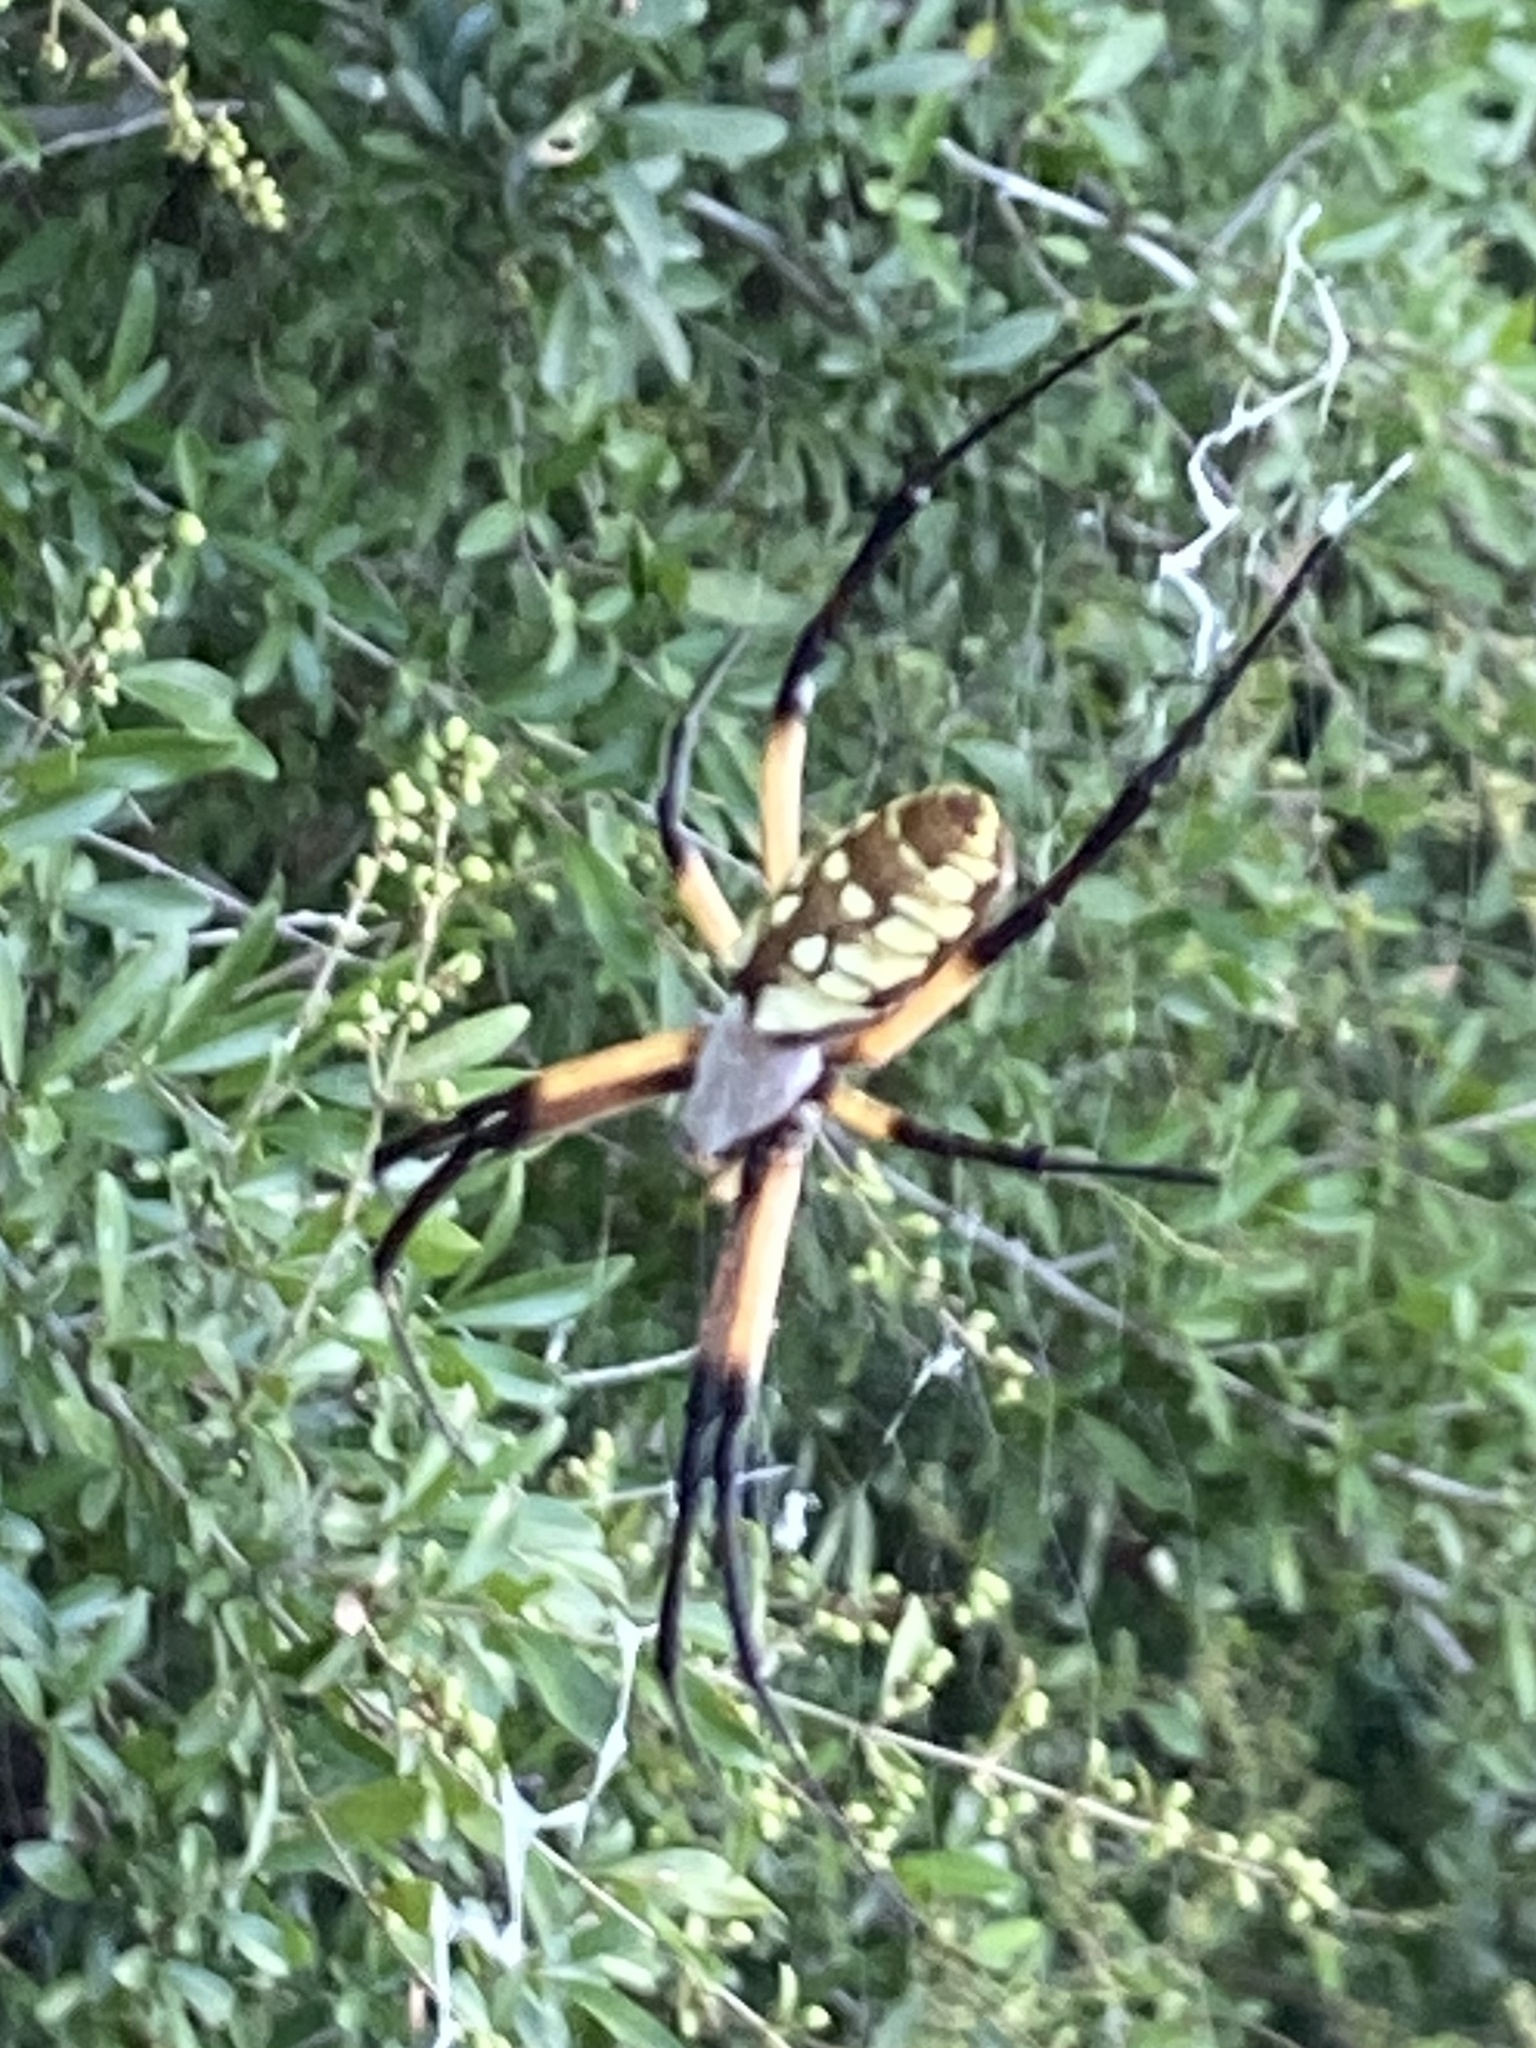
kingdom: Animalia
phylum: Arthropoda
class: Arachnida
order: Araneae
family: Araneidae
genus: Argiope
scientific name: Argiope aurantia
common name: Orb weavers
